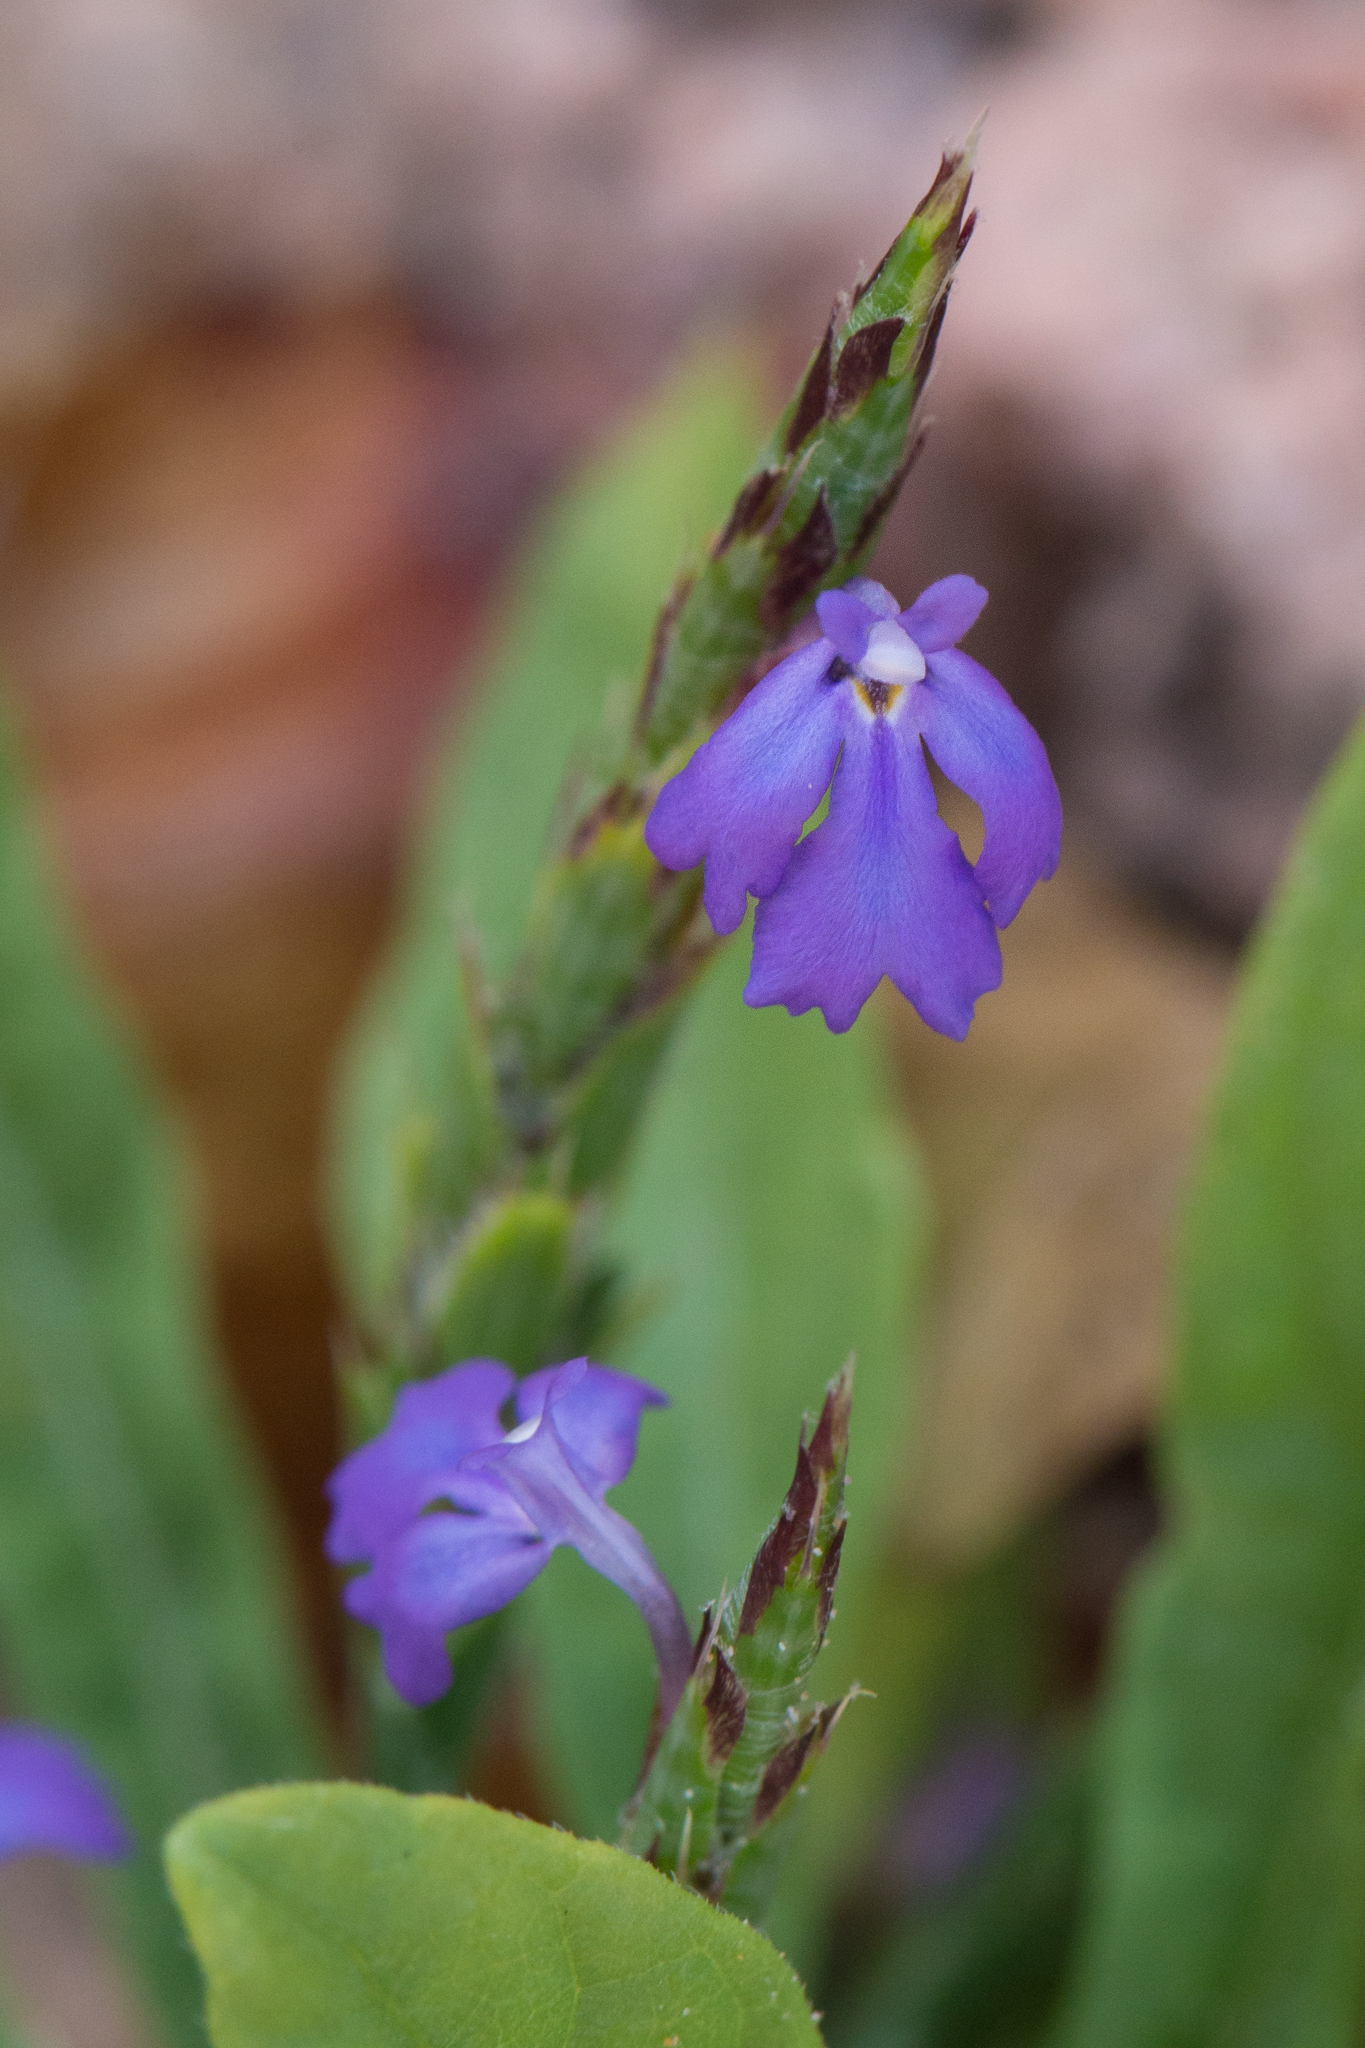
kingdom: Plantae
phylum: Tracheophyta
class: Magnoliopsida
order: Lamiales
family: Acanthaceae
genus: Elytraria
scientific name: Elytraria imbricata
